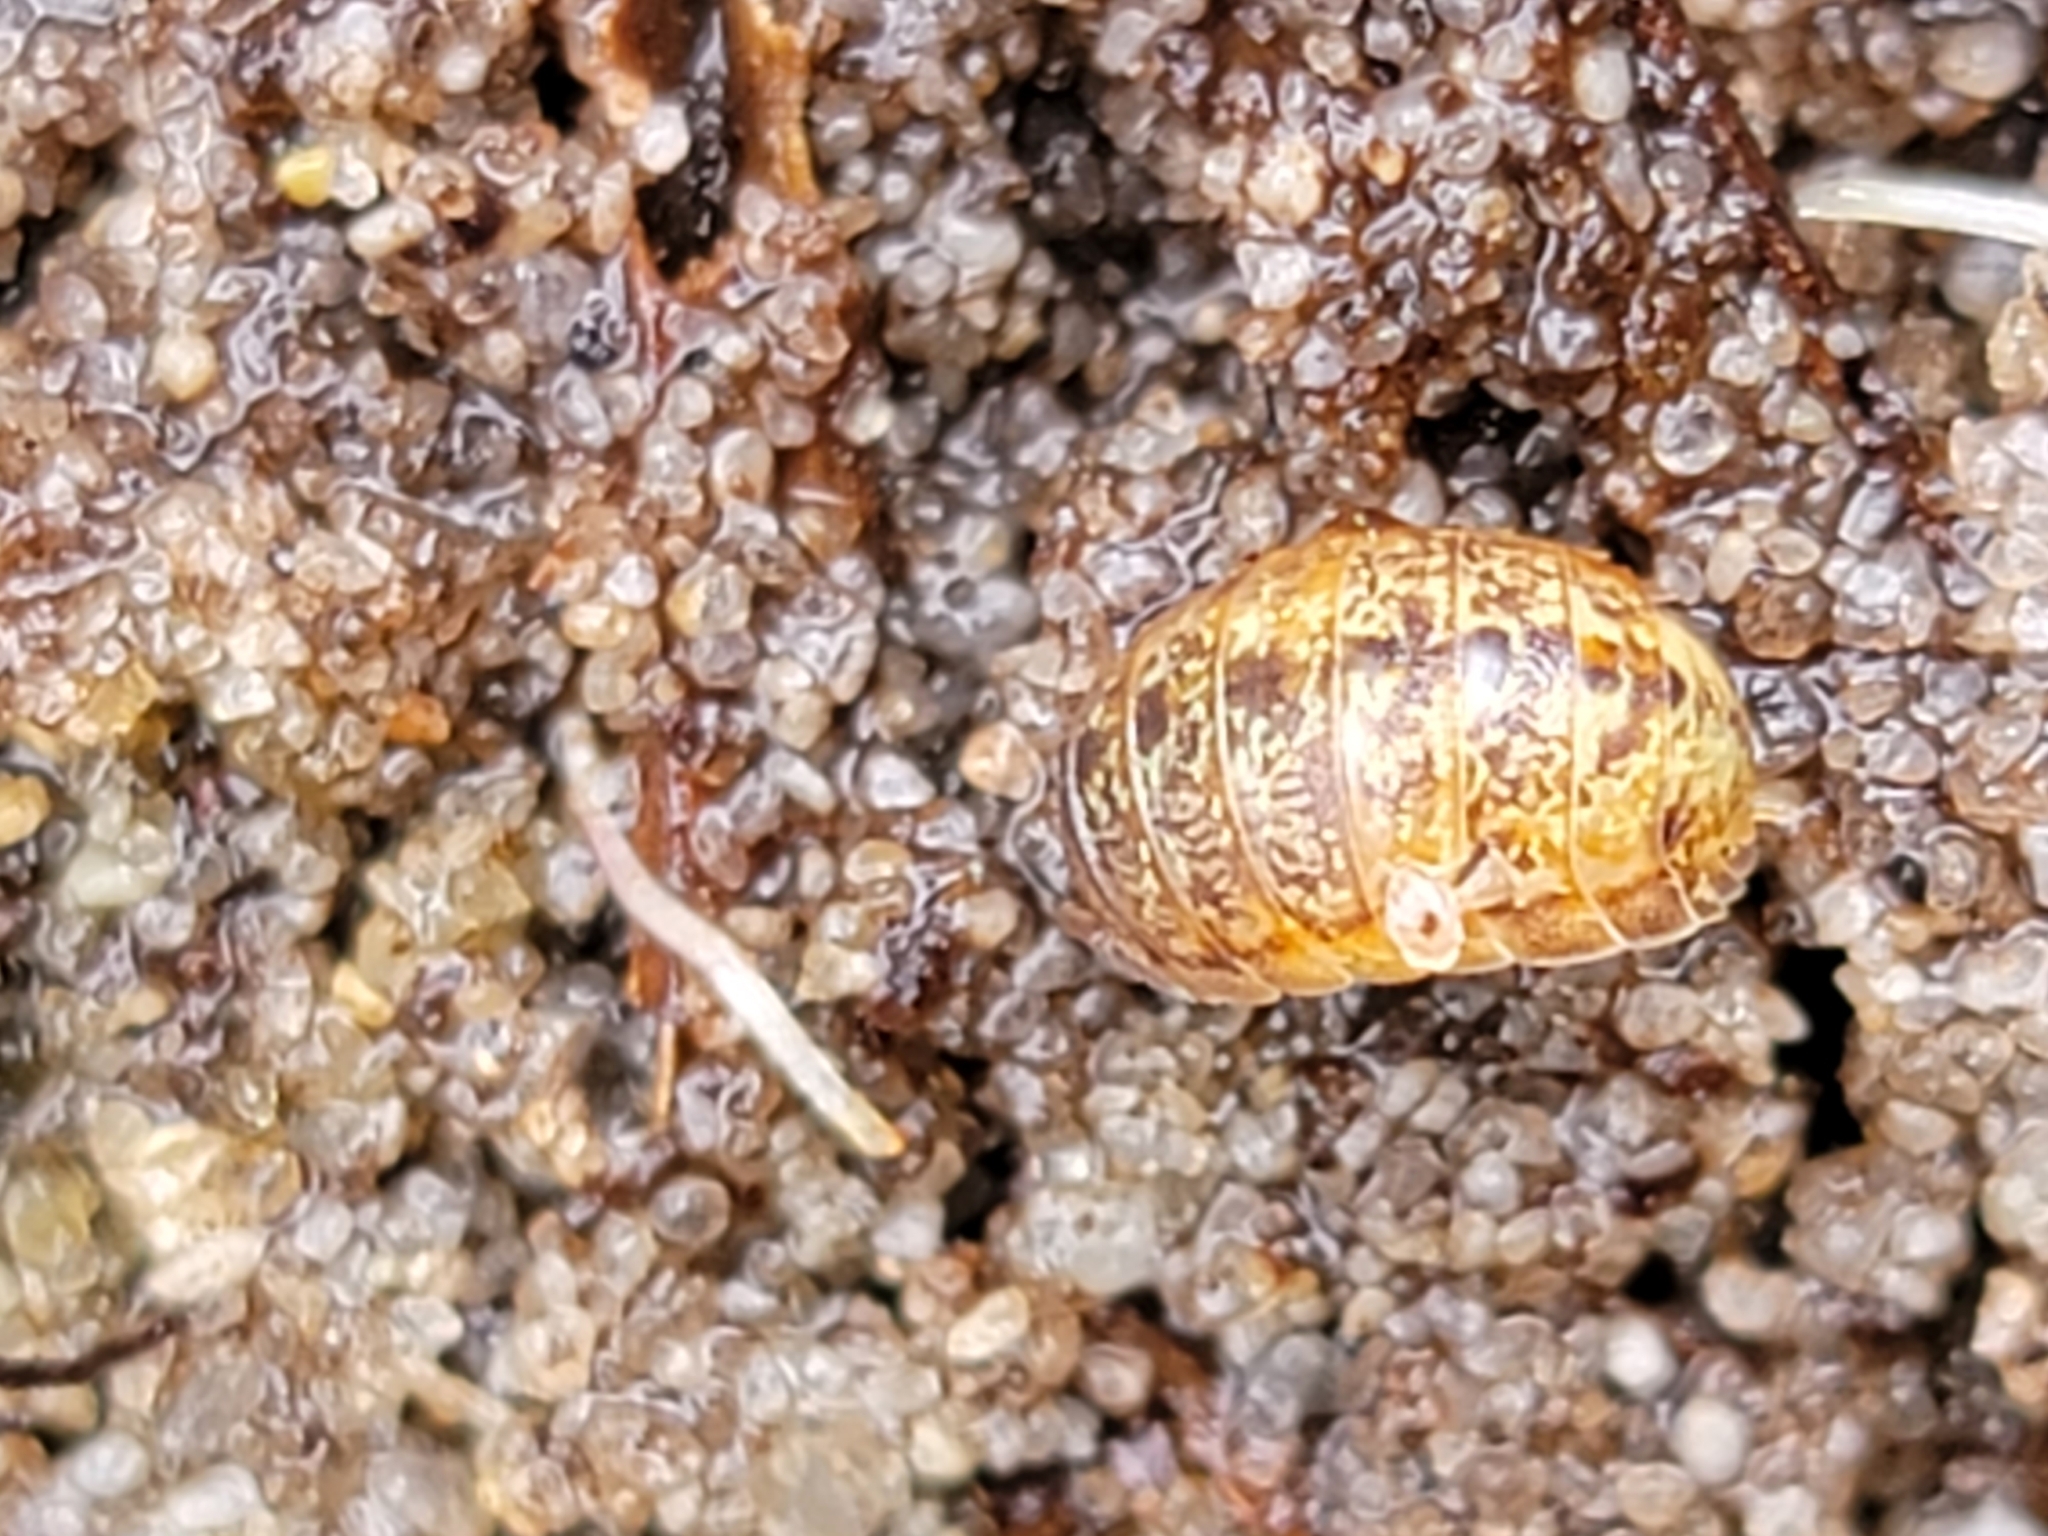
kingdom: Animalia
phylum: Arthropoda
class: Malacostraca
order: Isopoda
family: Alloniscidae
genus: Alloniscus
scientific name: Alloniscus mirabilis
